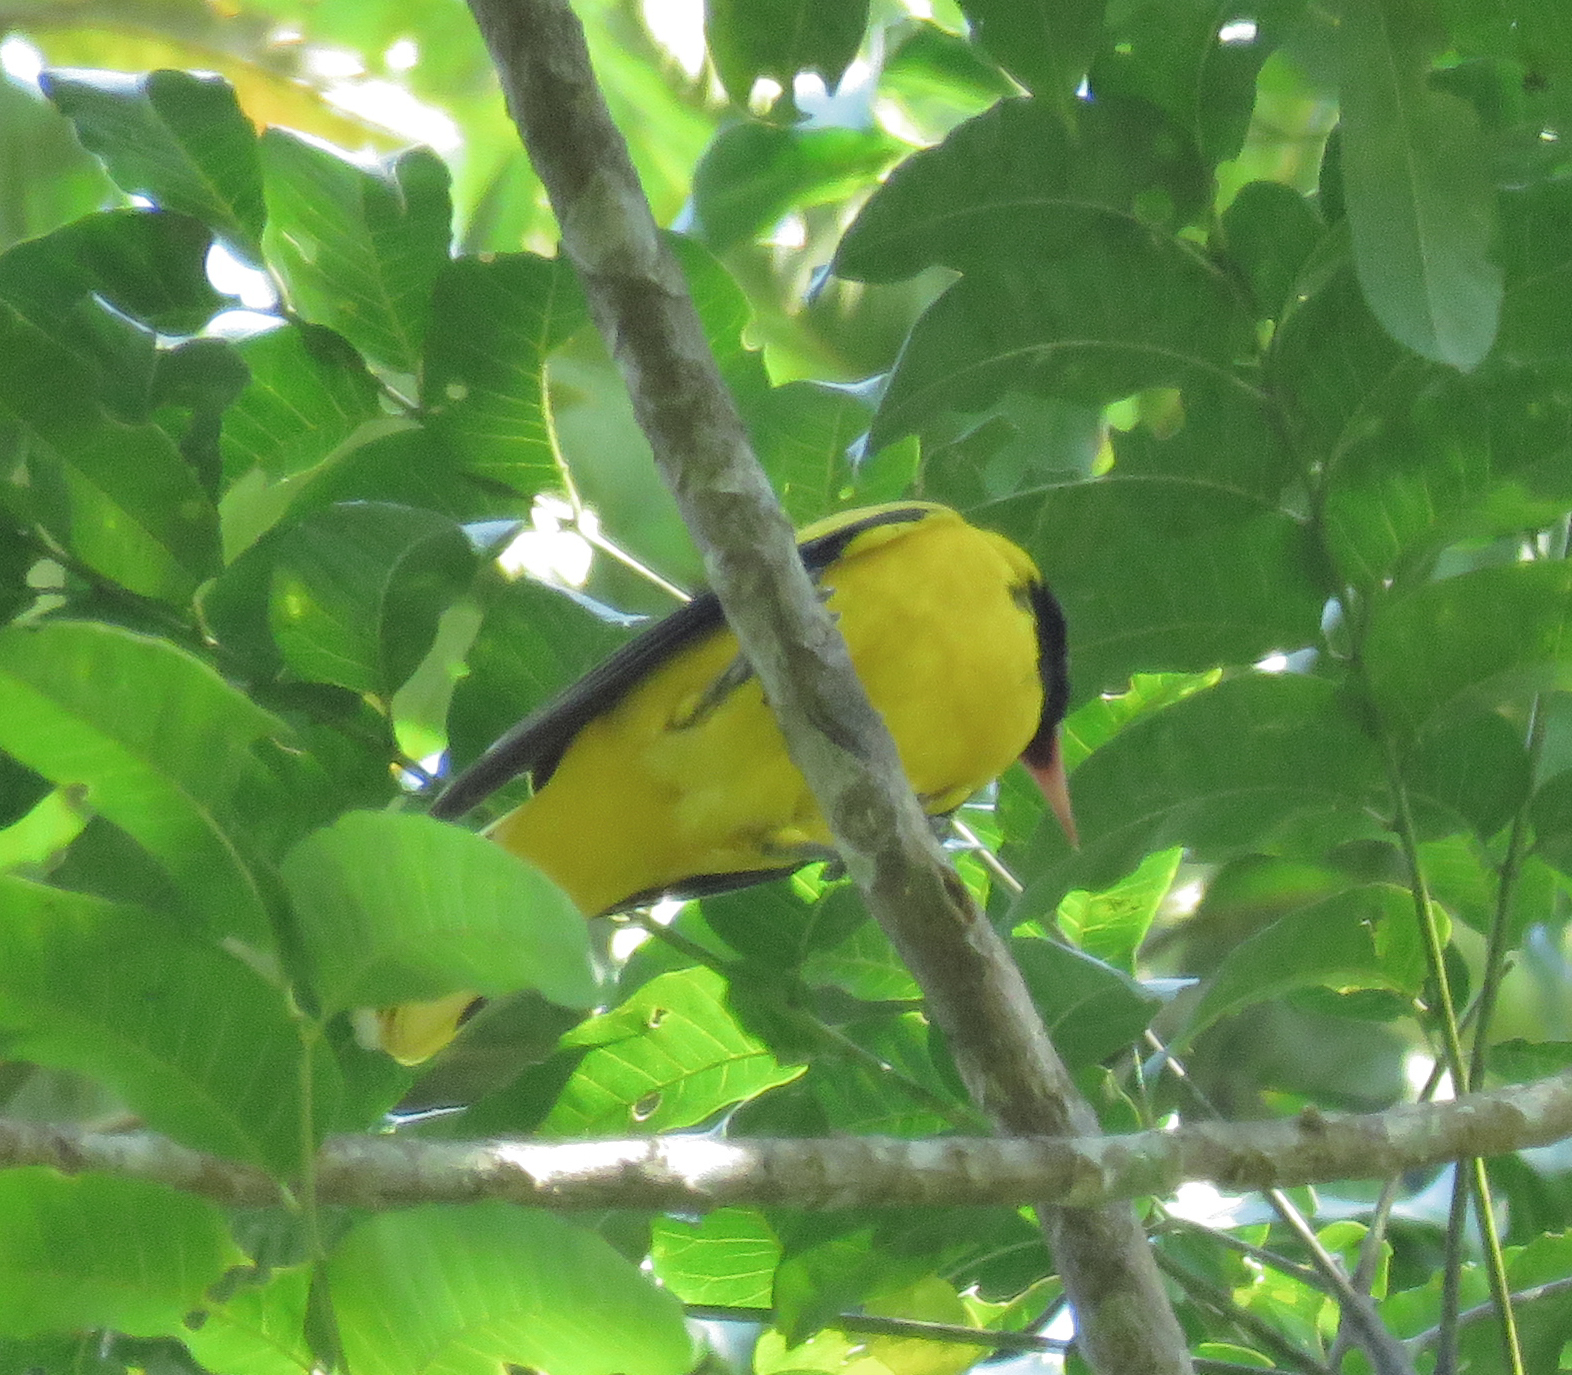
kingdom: Animalia
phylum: Chordata
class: Aves
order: Passeriformes
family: Oriolidae
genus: Oriolus
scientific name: Oriolus xanthornus
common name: Black-hooded oriole
